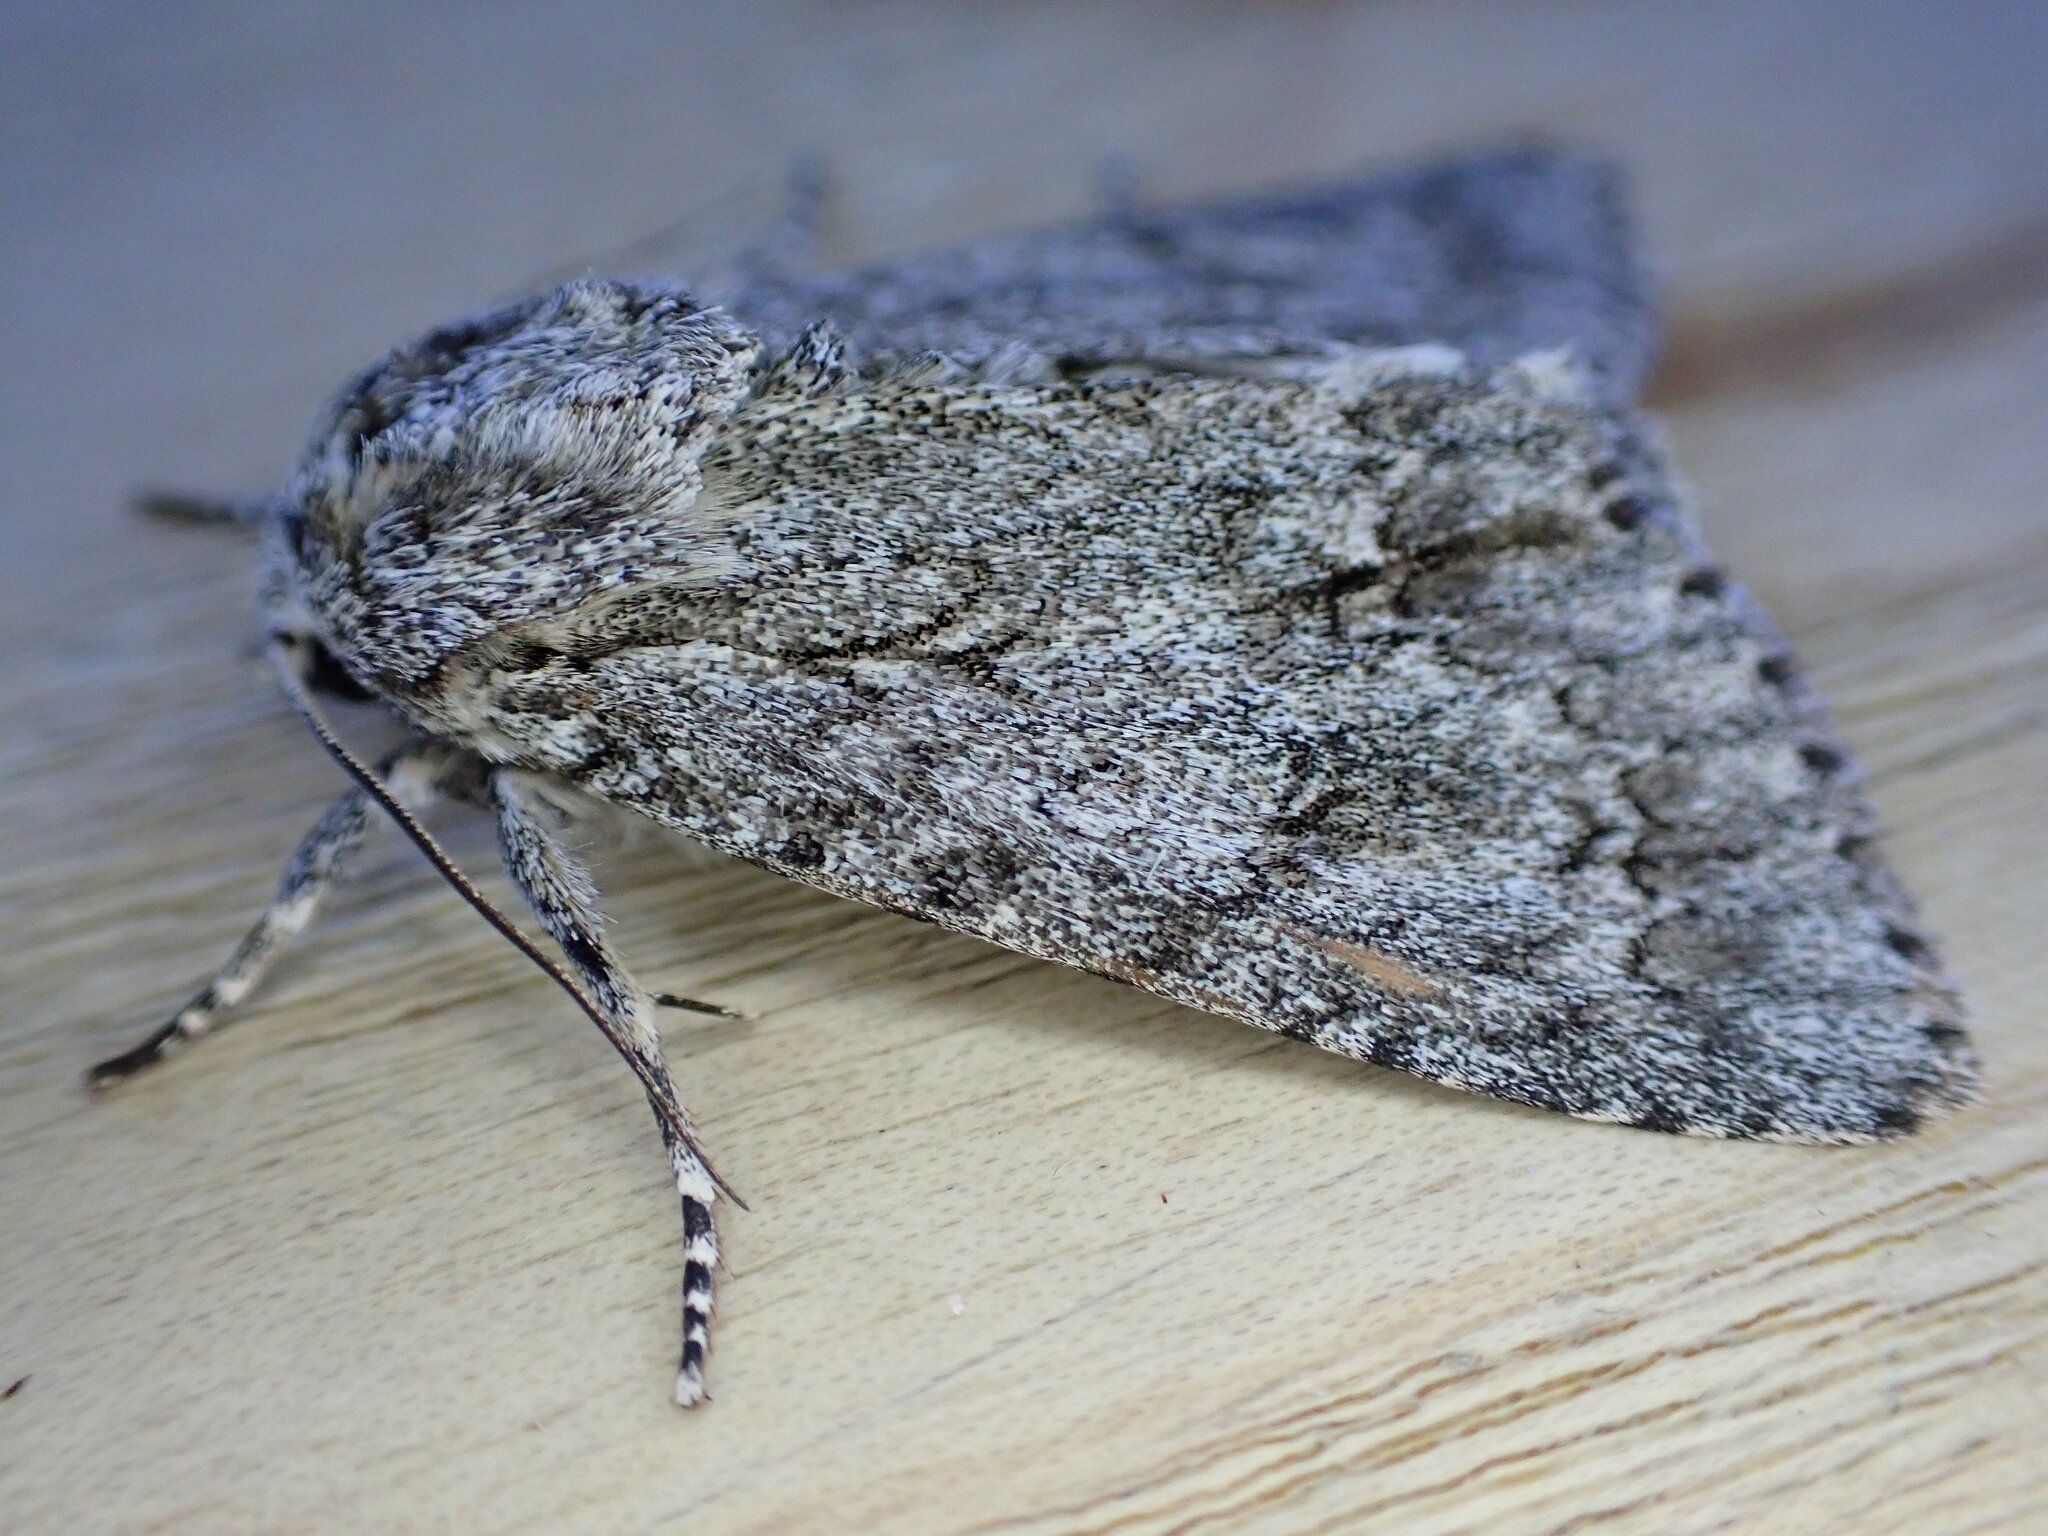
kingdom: Animalia
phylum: Arthropoda
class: Insecta
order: Lepidoptera
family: Noctuidae
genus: Acronicta
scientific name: Acronicta aceris
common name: Sycamore
